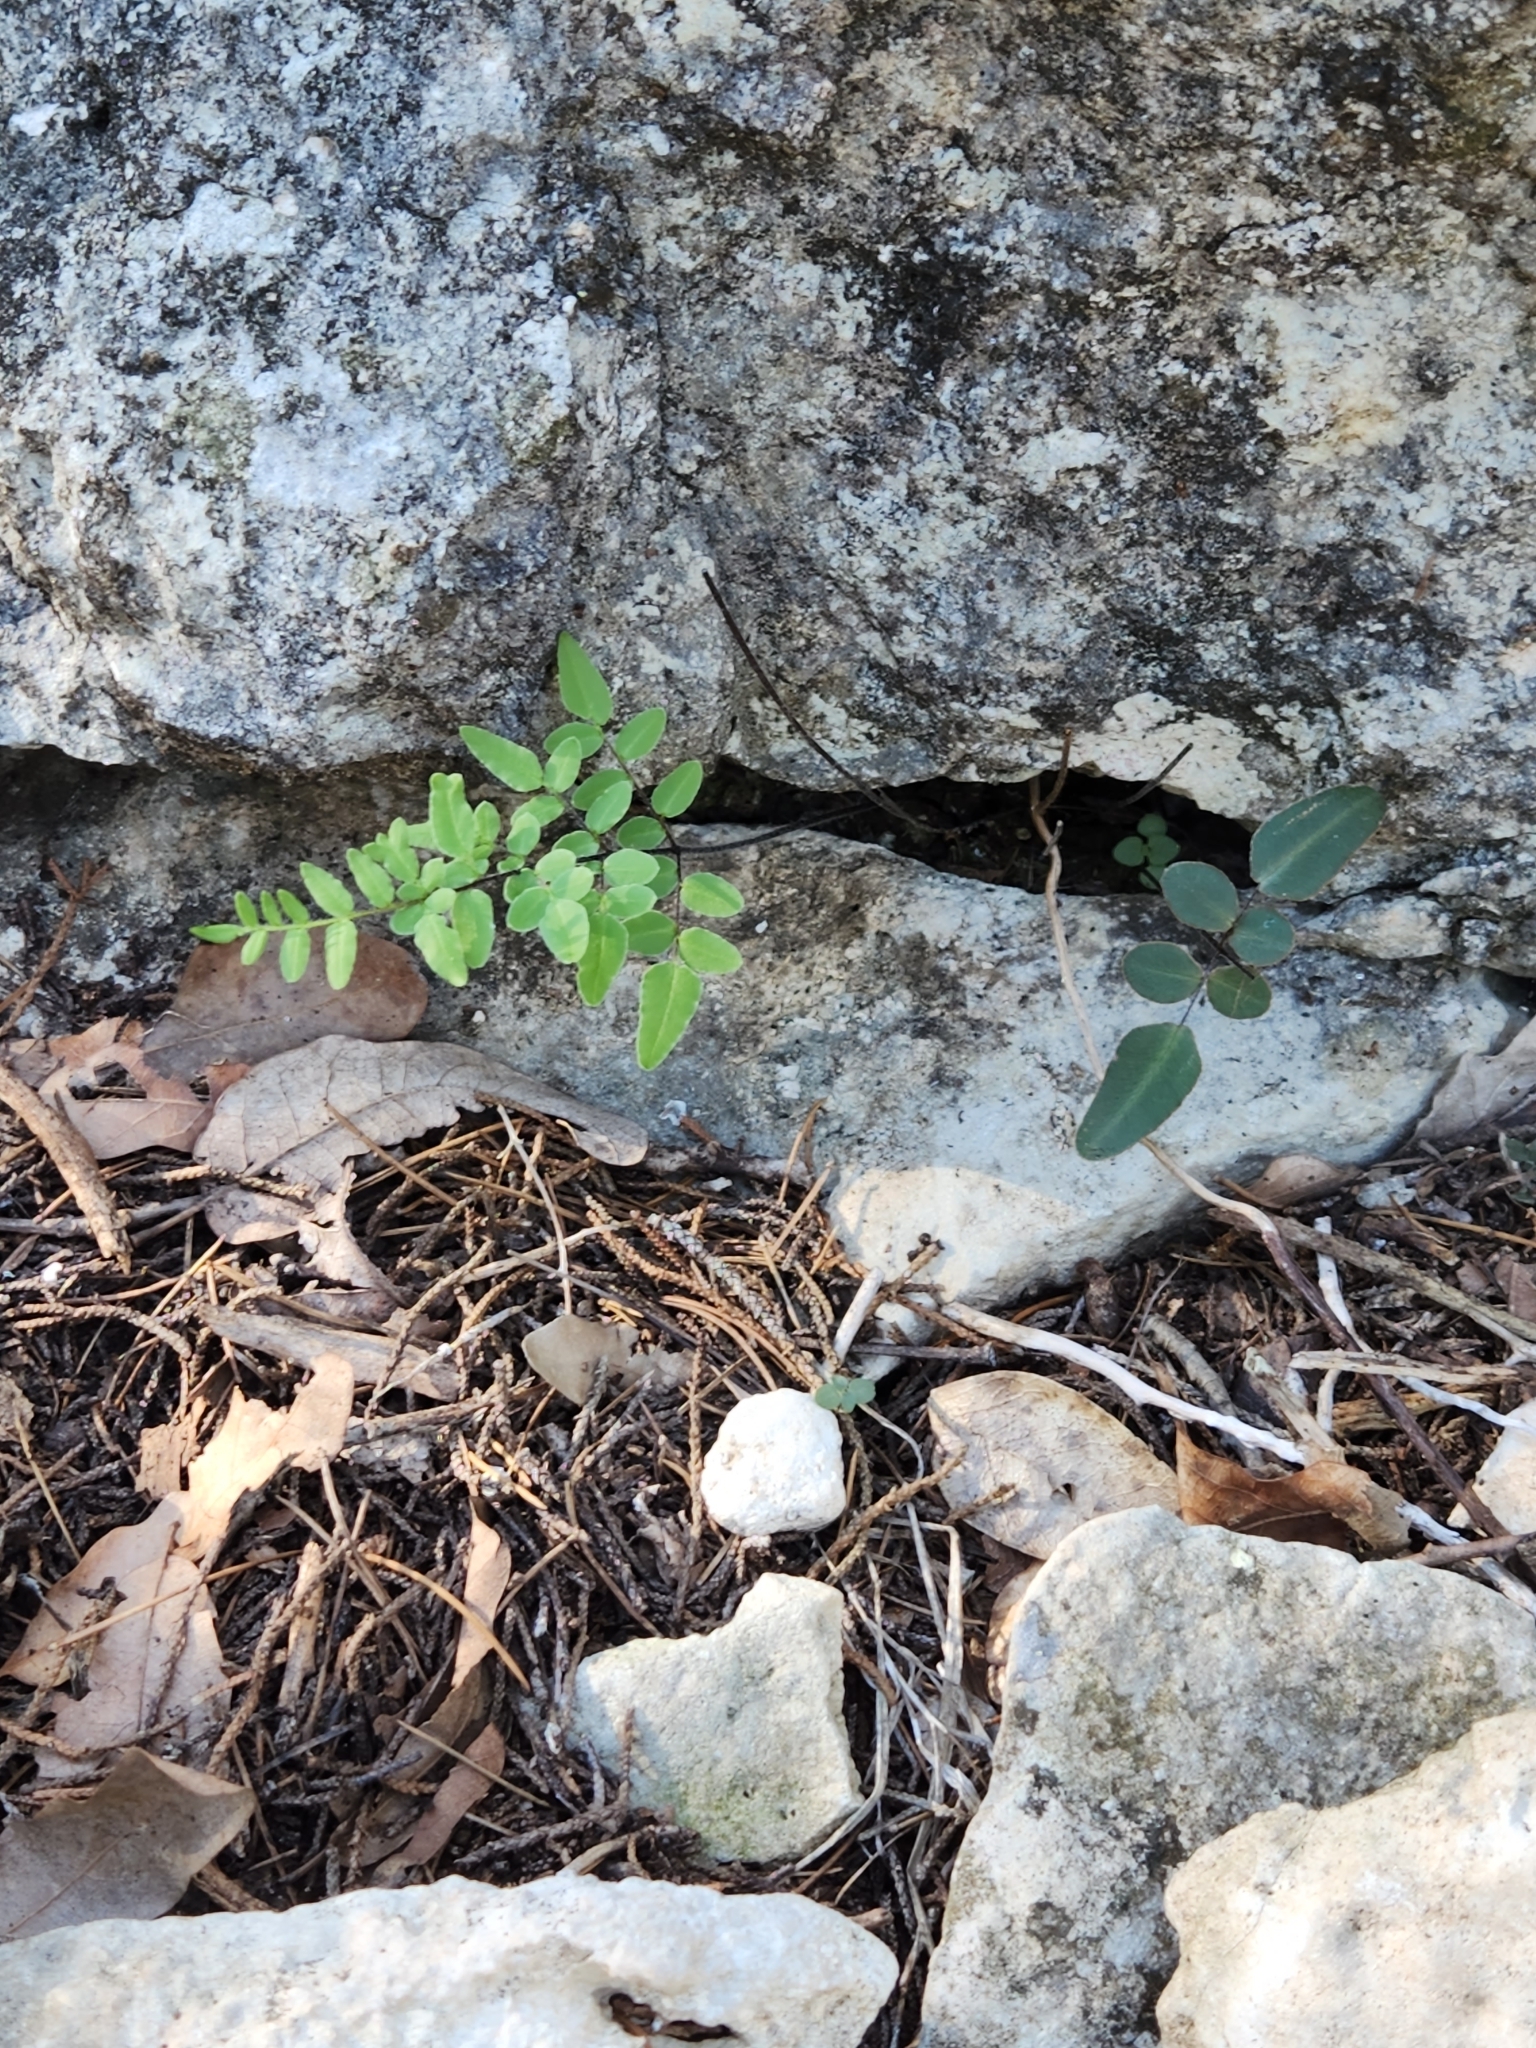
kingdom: Plantae
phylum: Tracheophyta
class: Polypodiopsida
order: Polypodiales
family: Pteridaceae
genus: Pellaea
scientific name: Pellaea atropurpurea
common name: Hairy cliffbrake
